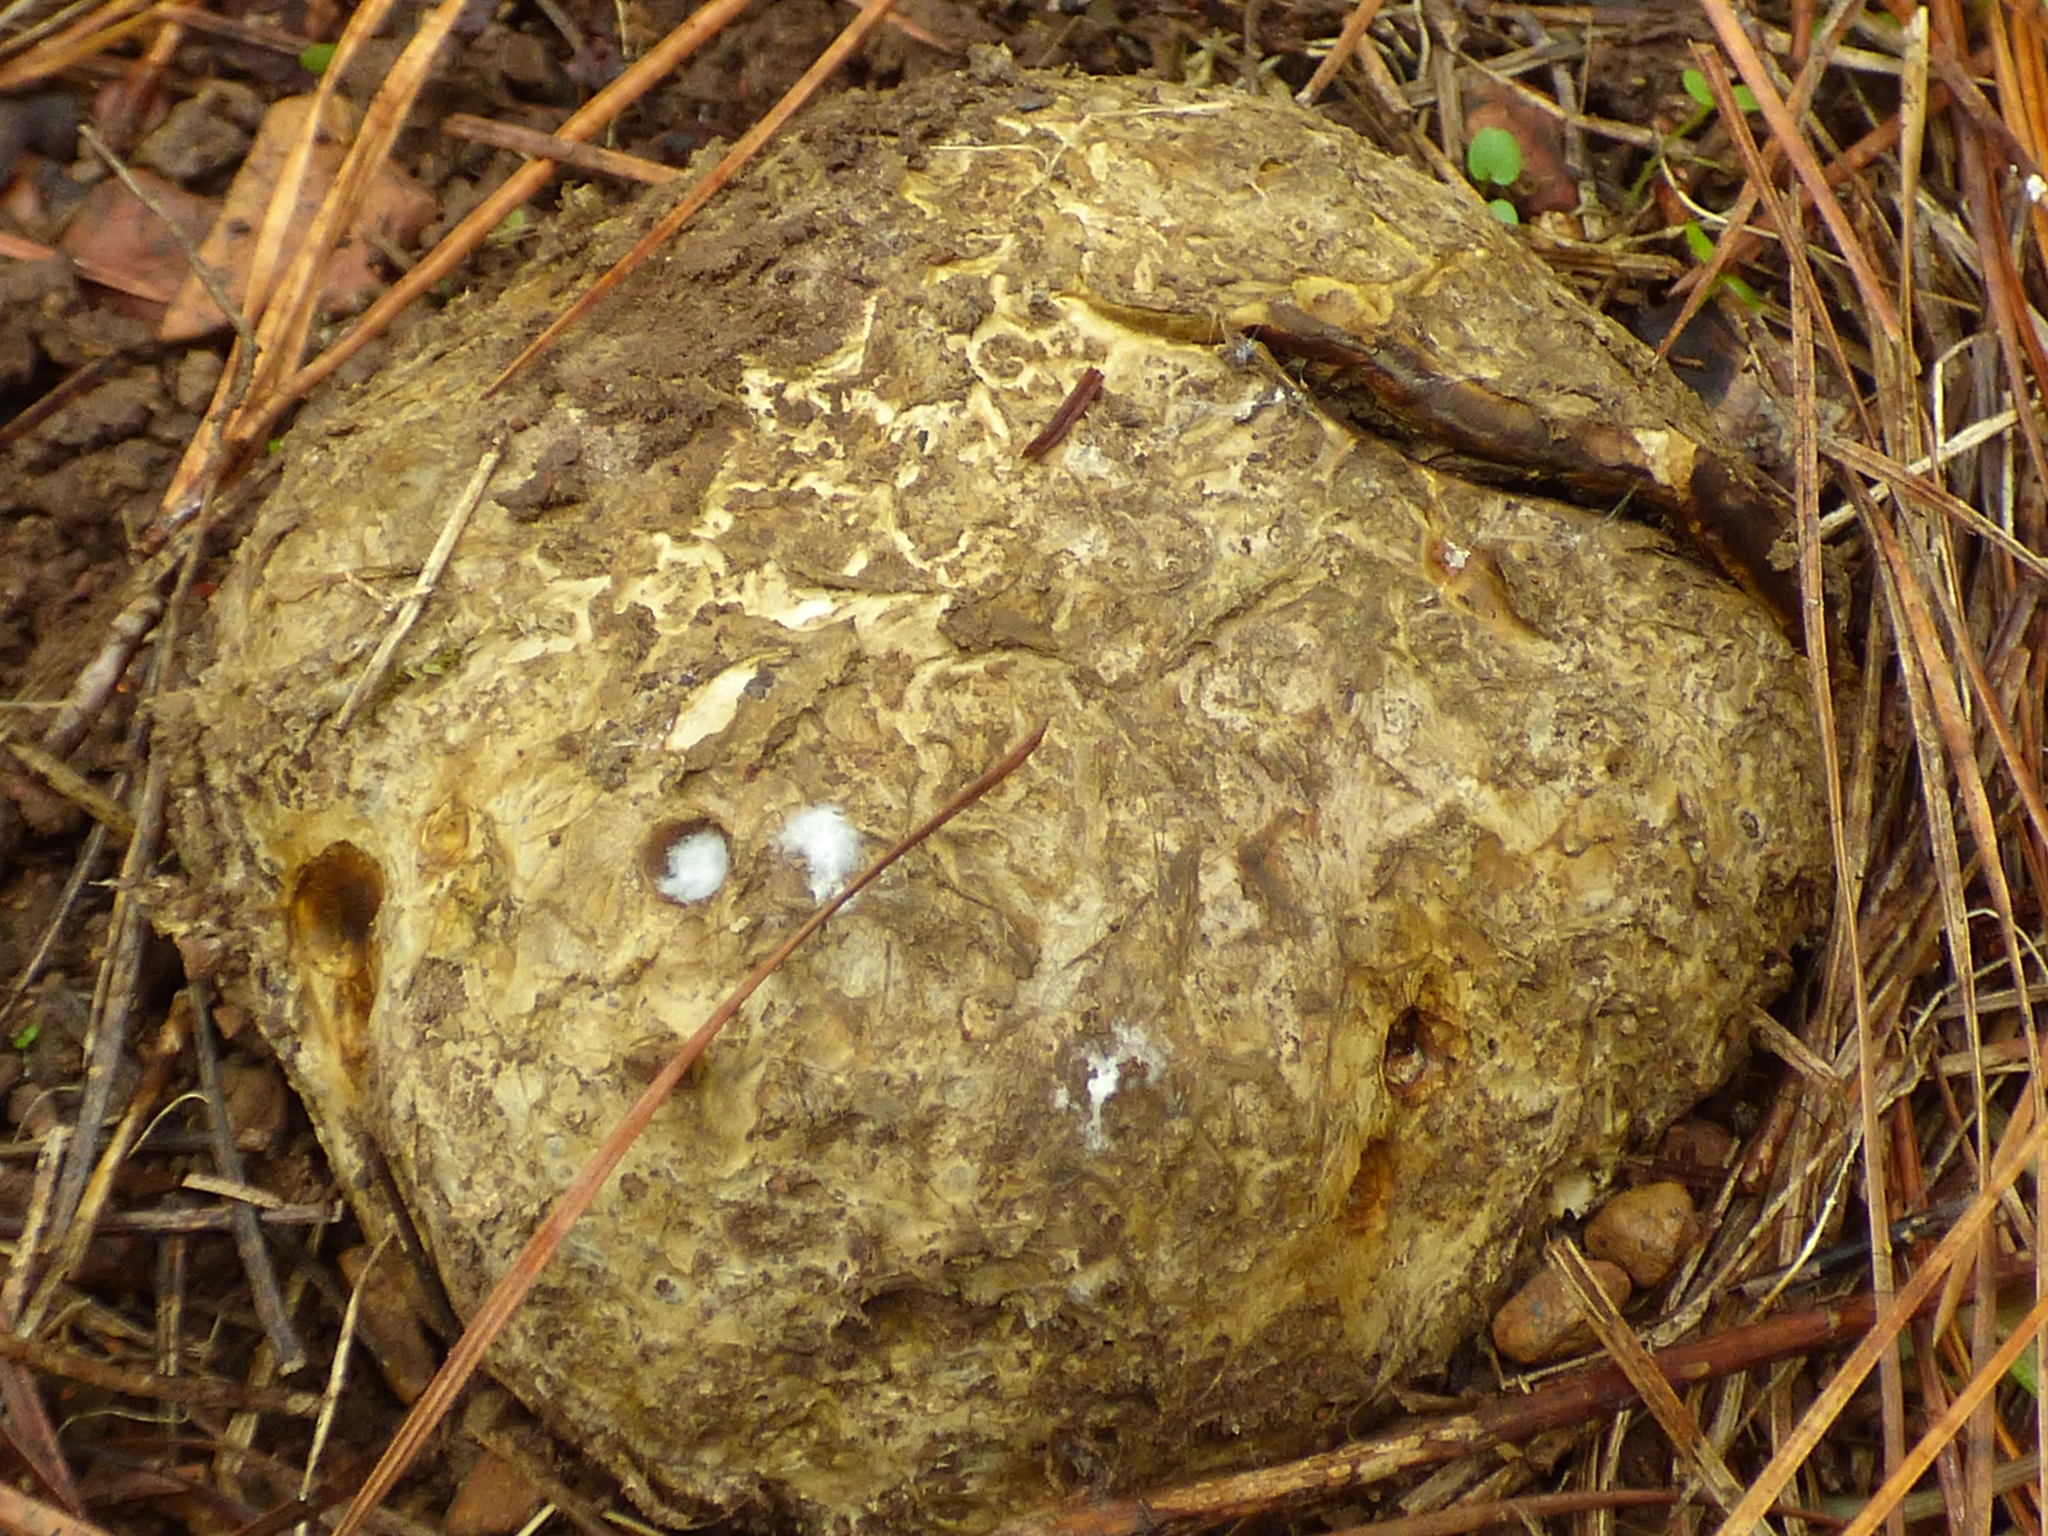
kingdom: Fungi
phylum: Basidiomycota
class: Agaricomycetes
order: Boletales
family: Sclerodermataceae
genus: Pisolithus
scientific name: Pisolithus arenarius
